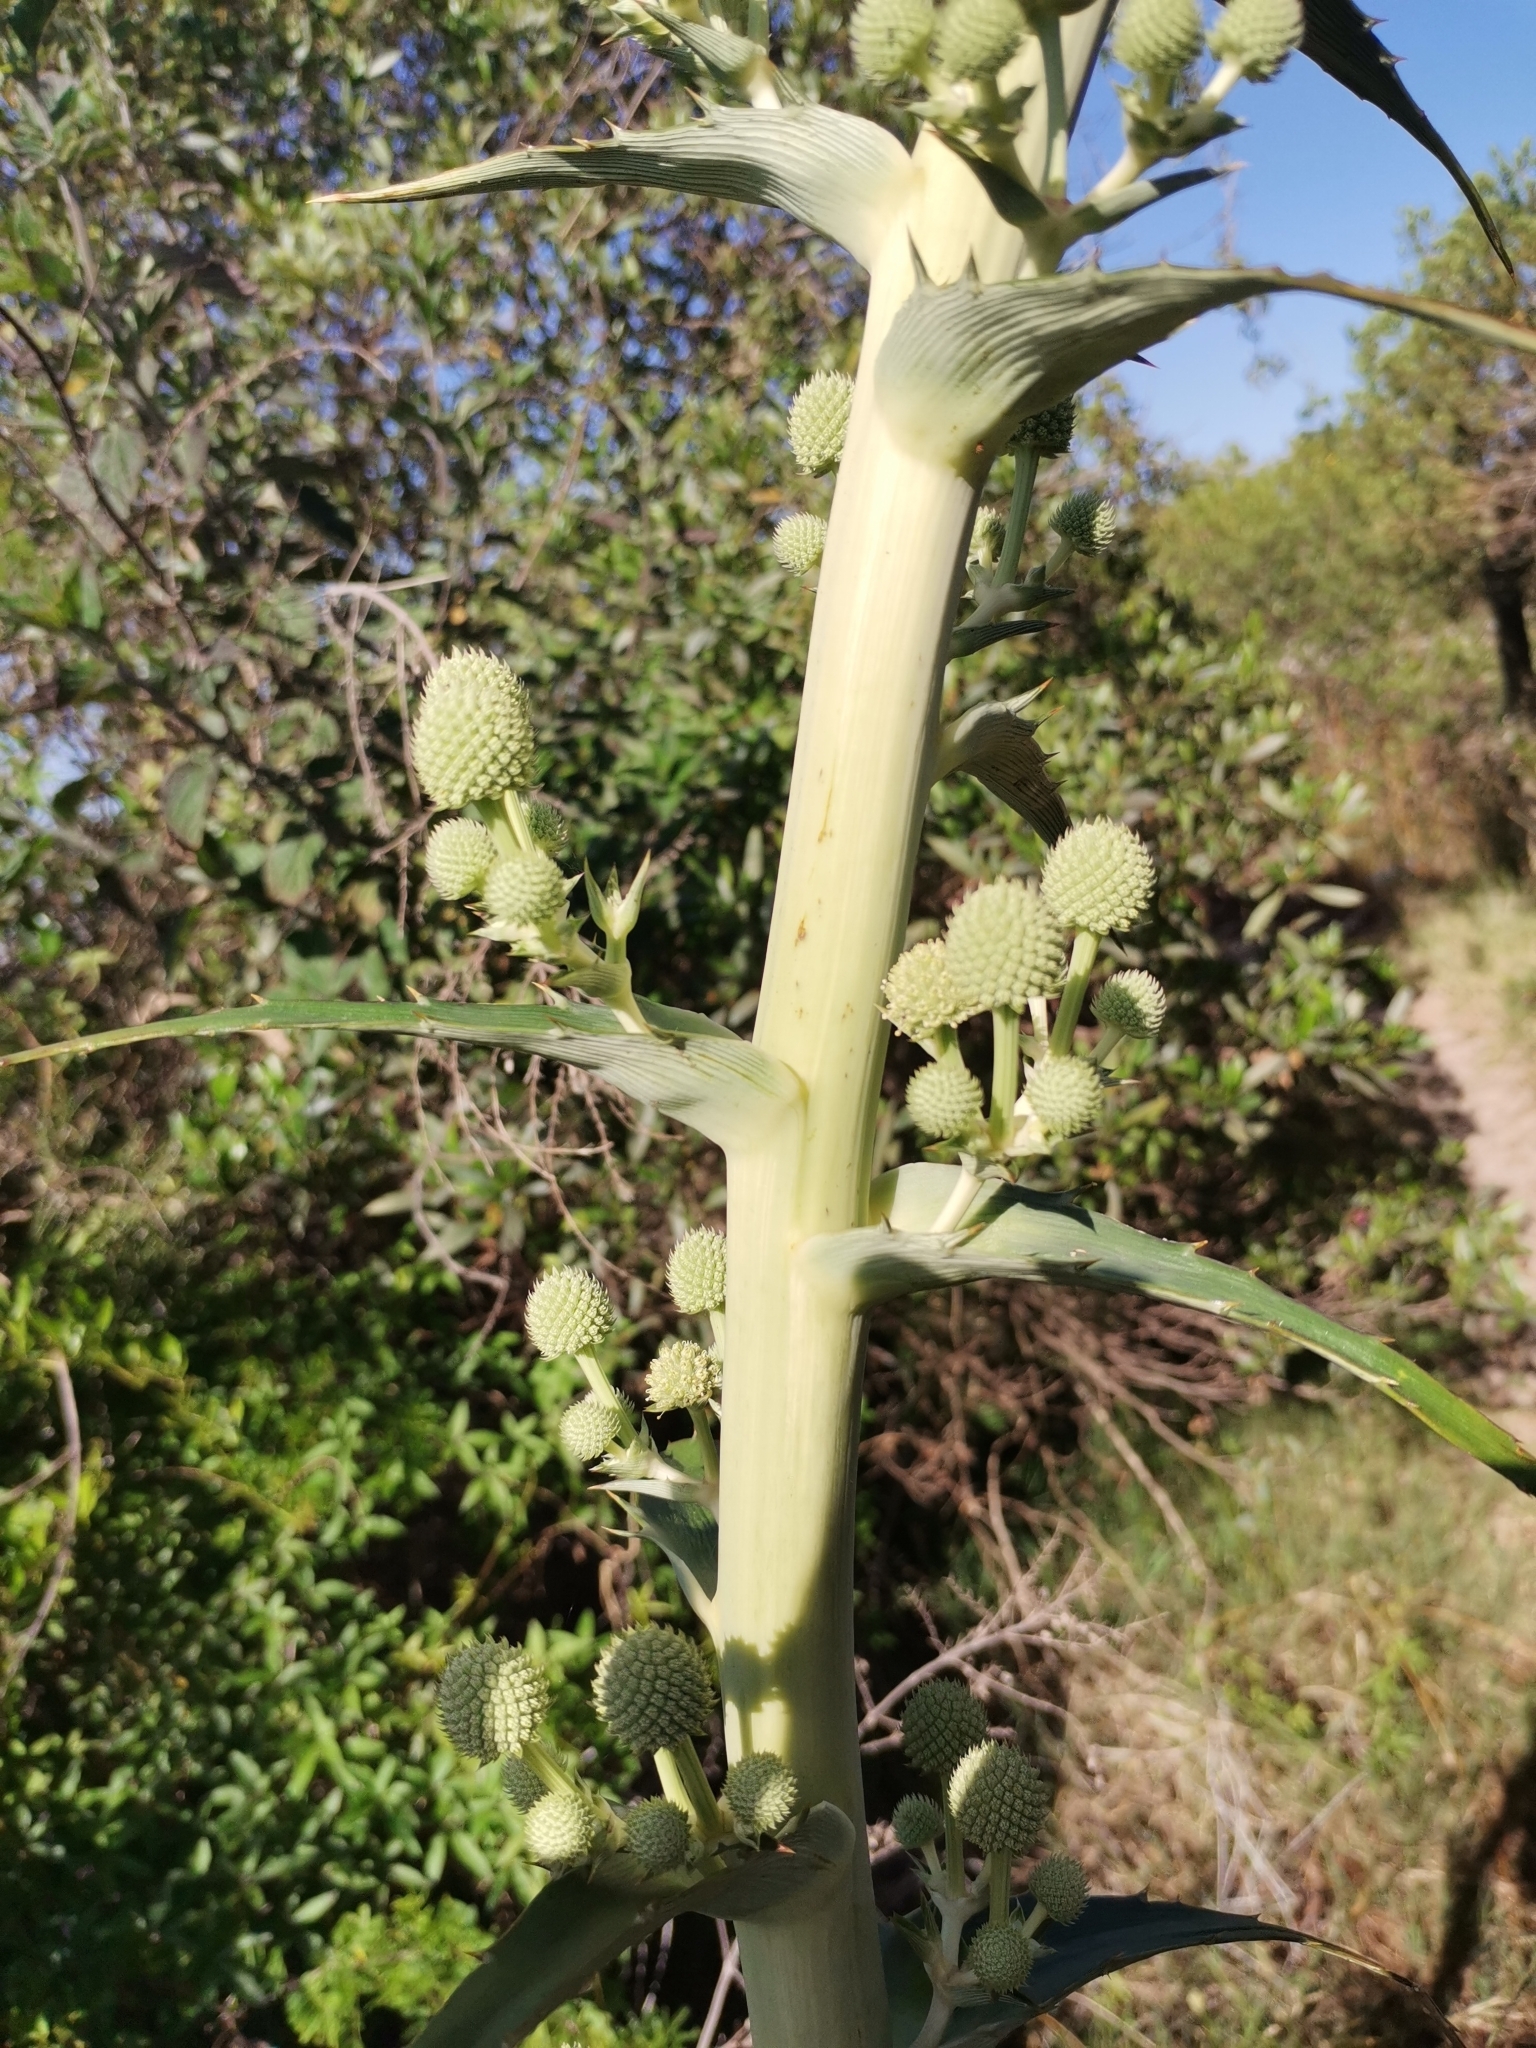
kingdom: Plantae
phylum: Tracheophyta
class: Magnoliopsida
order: Apiales
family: Apiaceae
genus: Eryngium
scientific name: Eryngium horridum
